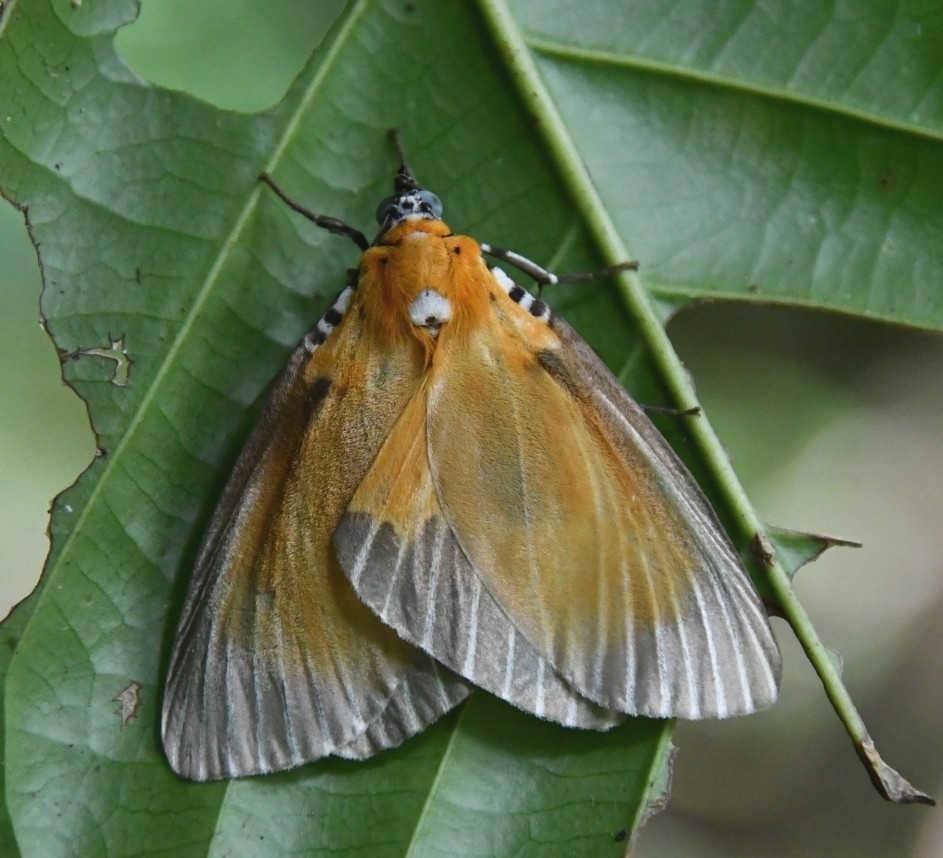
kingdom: Animalia
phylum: Arthropoda
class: Insecta
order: Lepidoptera
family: Erebidae
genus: Peridrome
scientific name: Peridrome orbicularis
